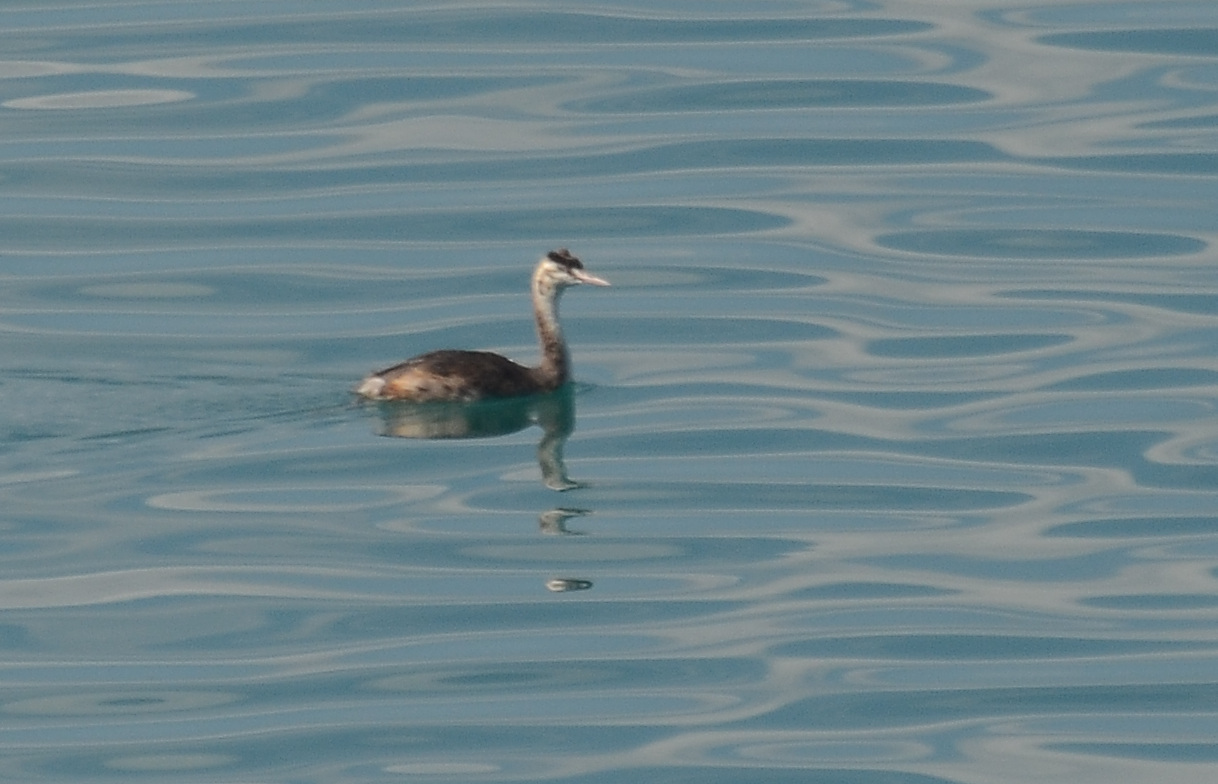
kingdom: Animalia
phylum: Chordata
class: Aves
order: Podicipediformes
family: Podicipedidae
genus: Podiceps
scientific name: Podiceps cristatus
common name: Great crested grebe
